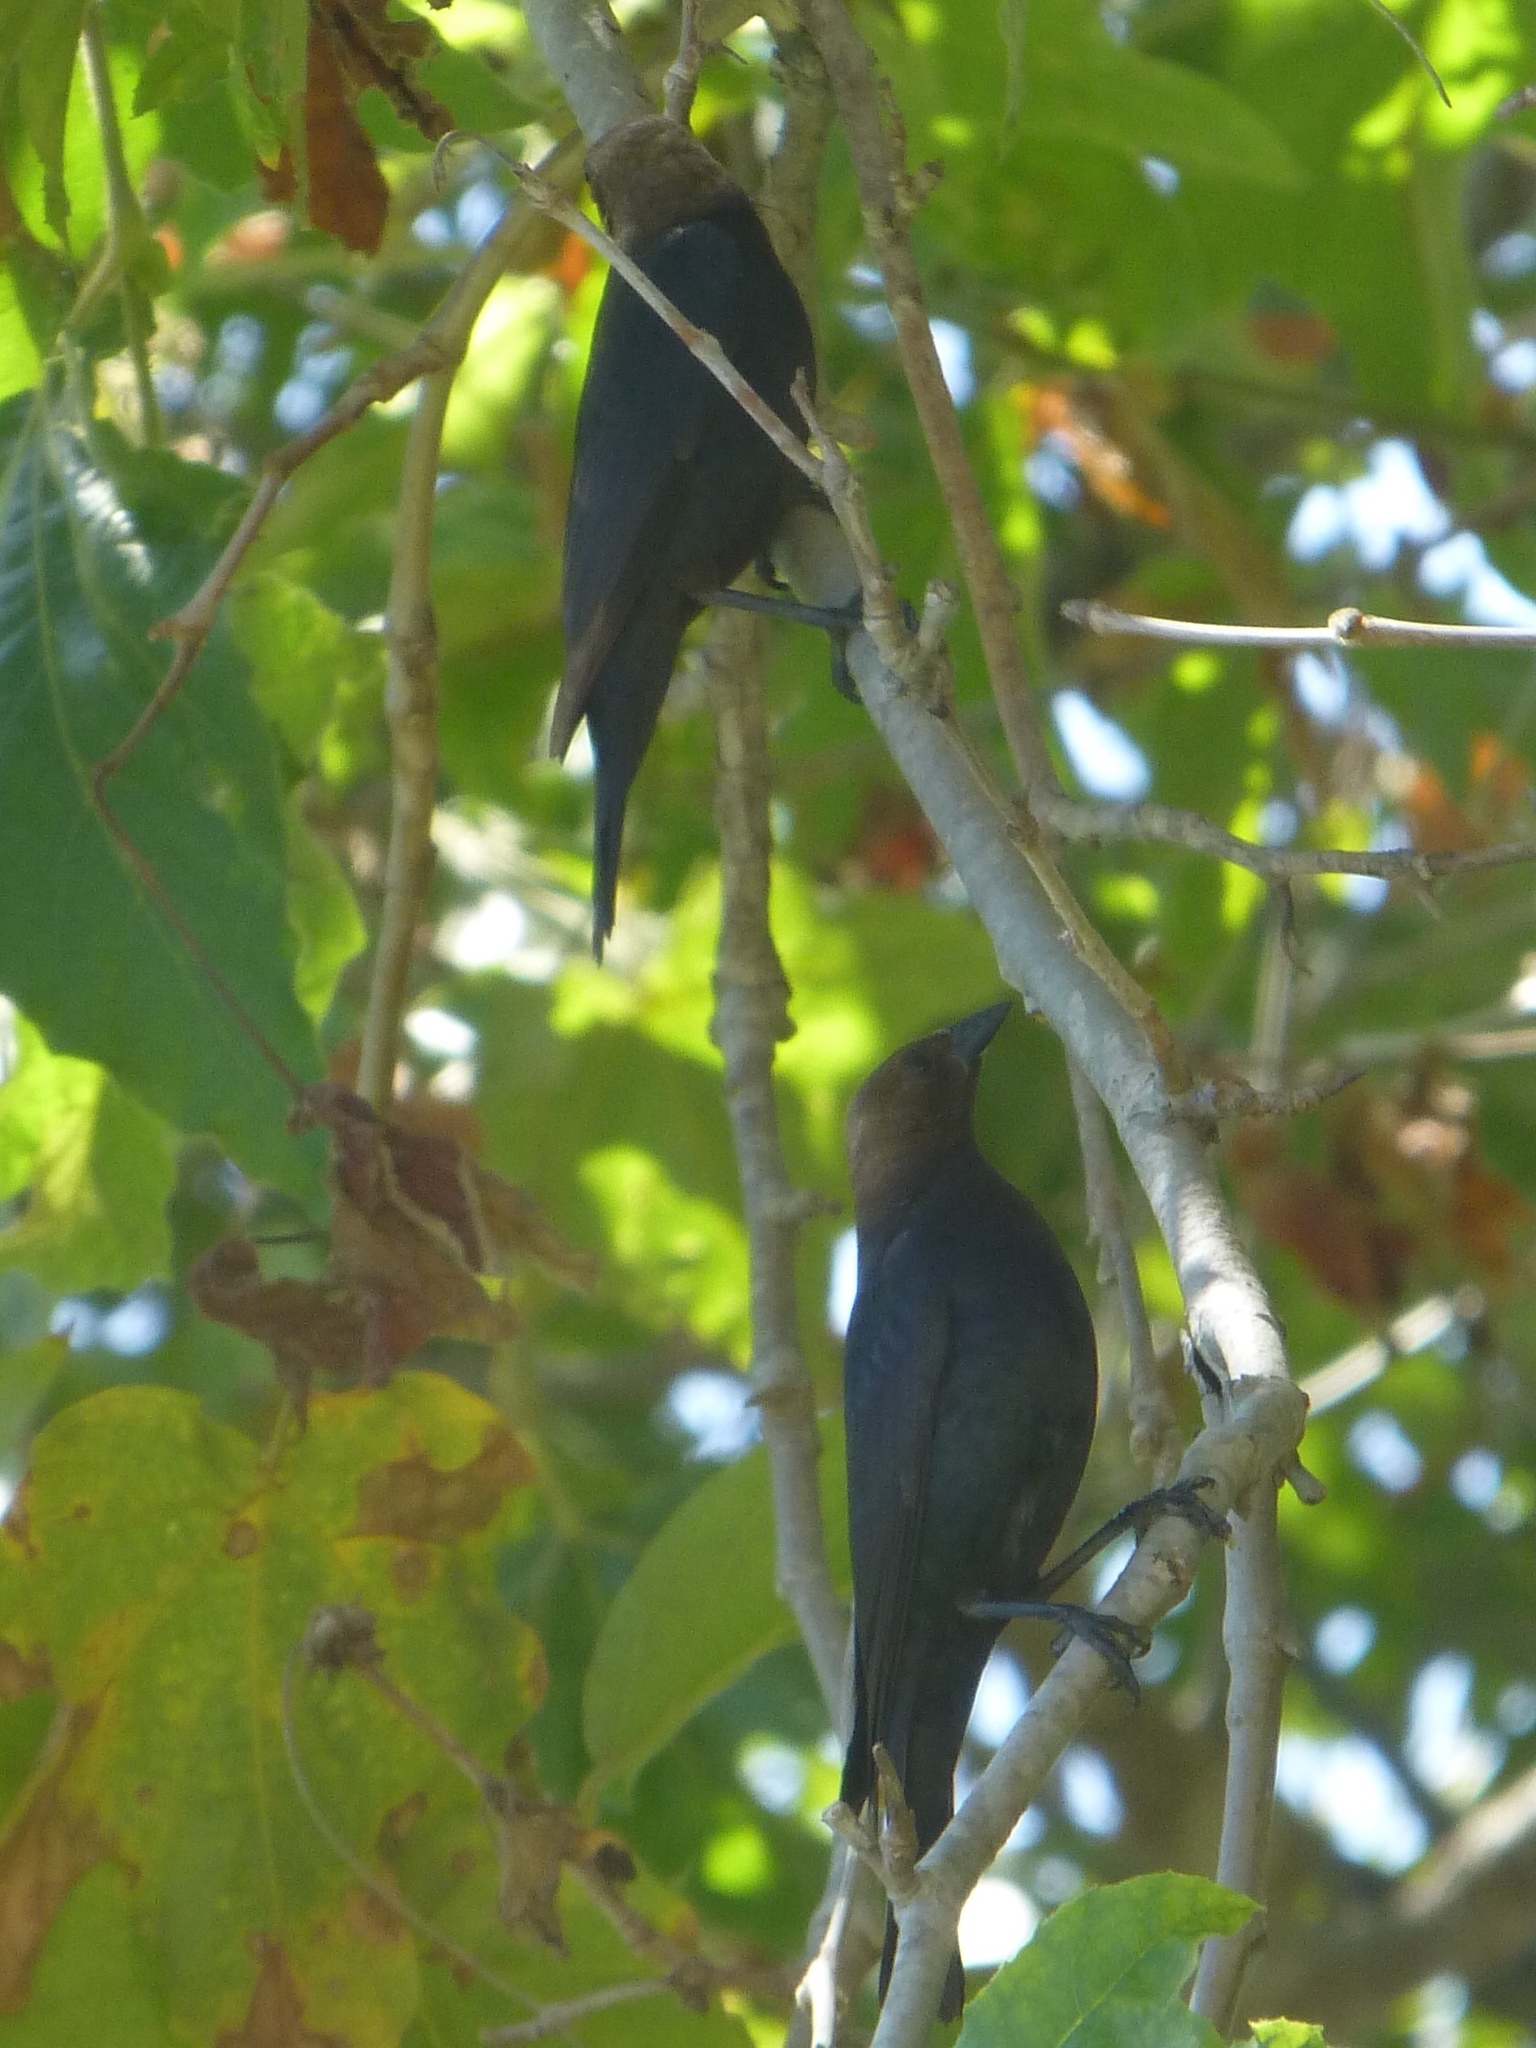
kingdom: Animalia
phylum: Chordata
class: Aves
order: Passeriformes
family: Icteridae
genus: Molothrus
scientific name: Molothrus ater
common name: Brown-headed cowbird
